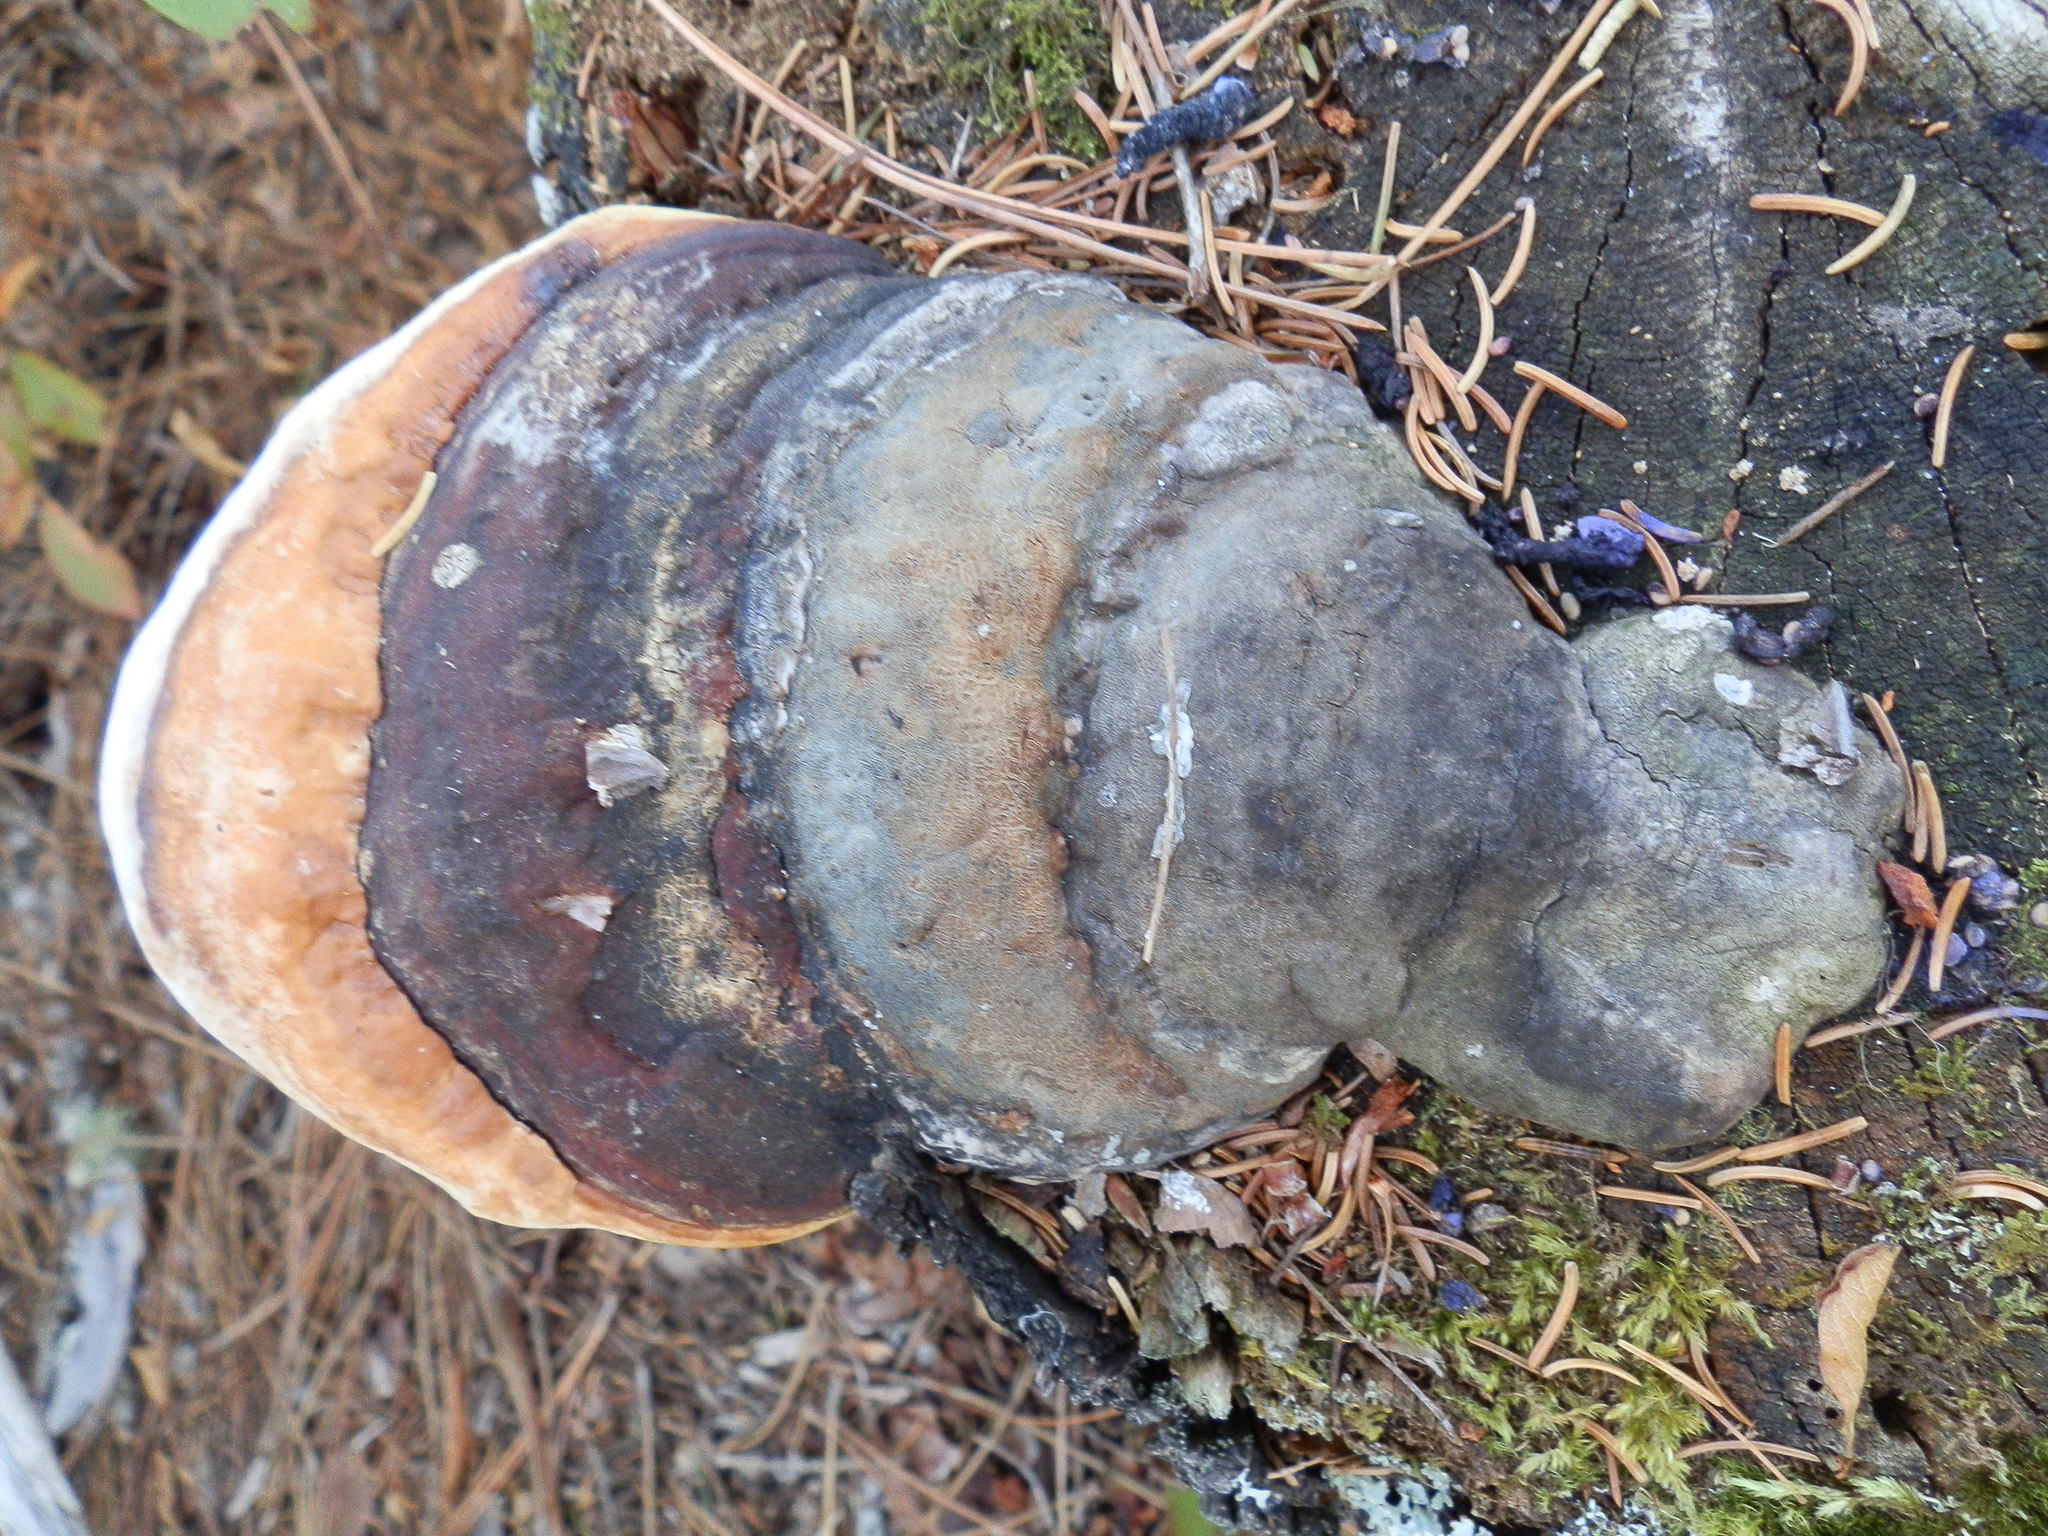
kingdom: Fungi
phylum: Basidiomycota
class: Agaricomycetes
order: Polyporales
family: Fomitopsidaceae
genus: Fomitopsis
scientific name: Fomitopsis mounceae
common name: Northern red belt
